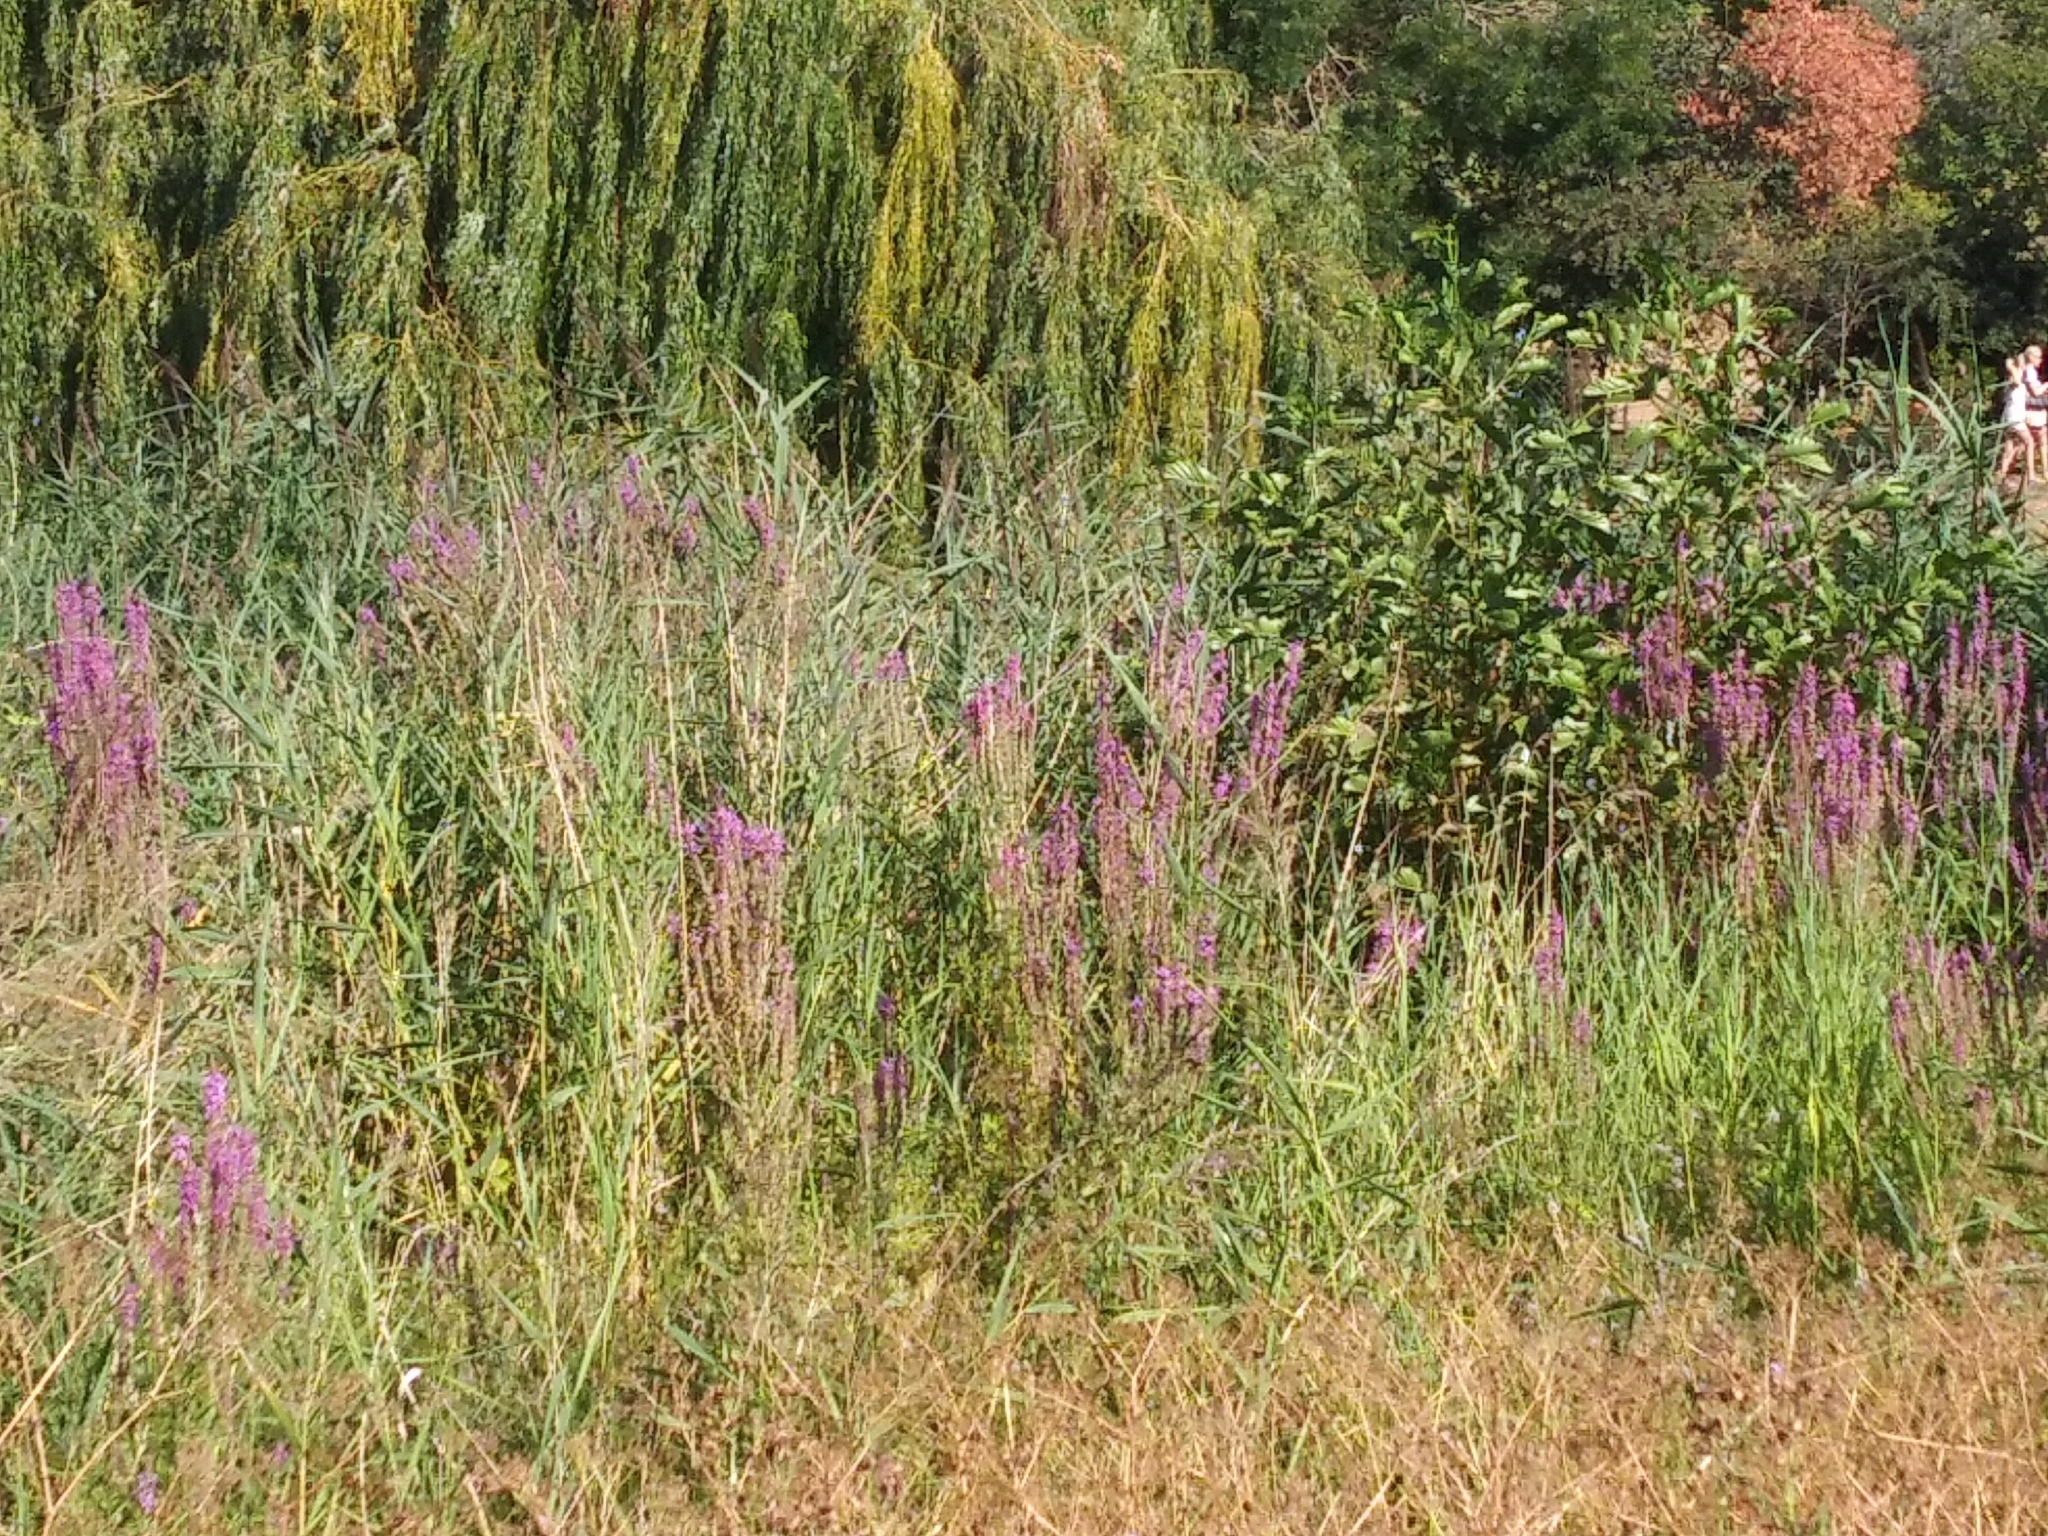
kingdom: Plantae
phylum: Tracheophyta
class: Magnoliopsida
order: Myrtales
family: Lythraceae
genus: Lythrum
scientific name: Lythrum salicaria
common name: Purple loosestrife
